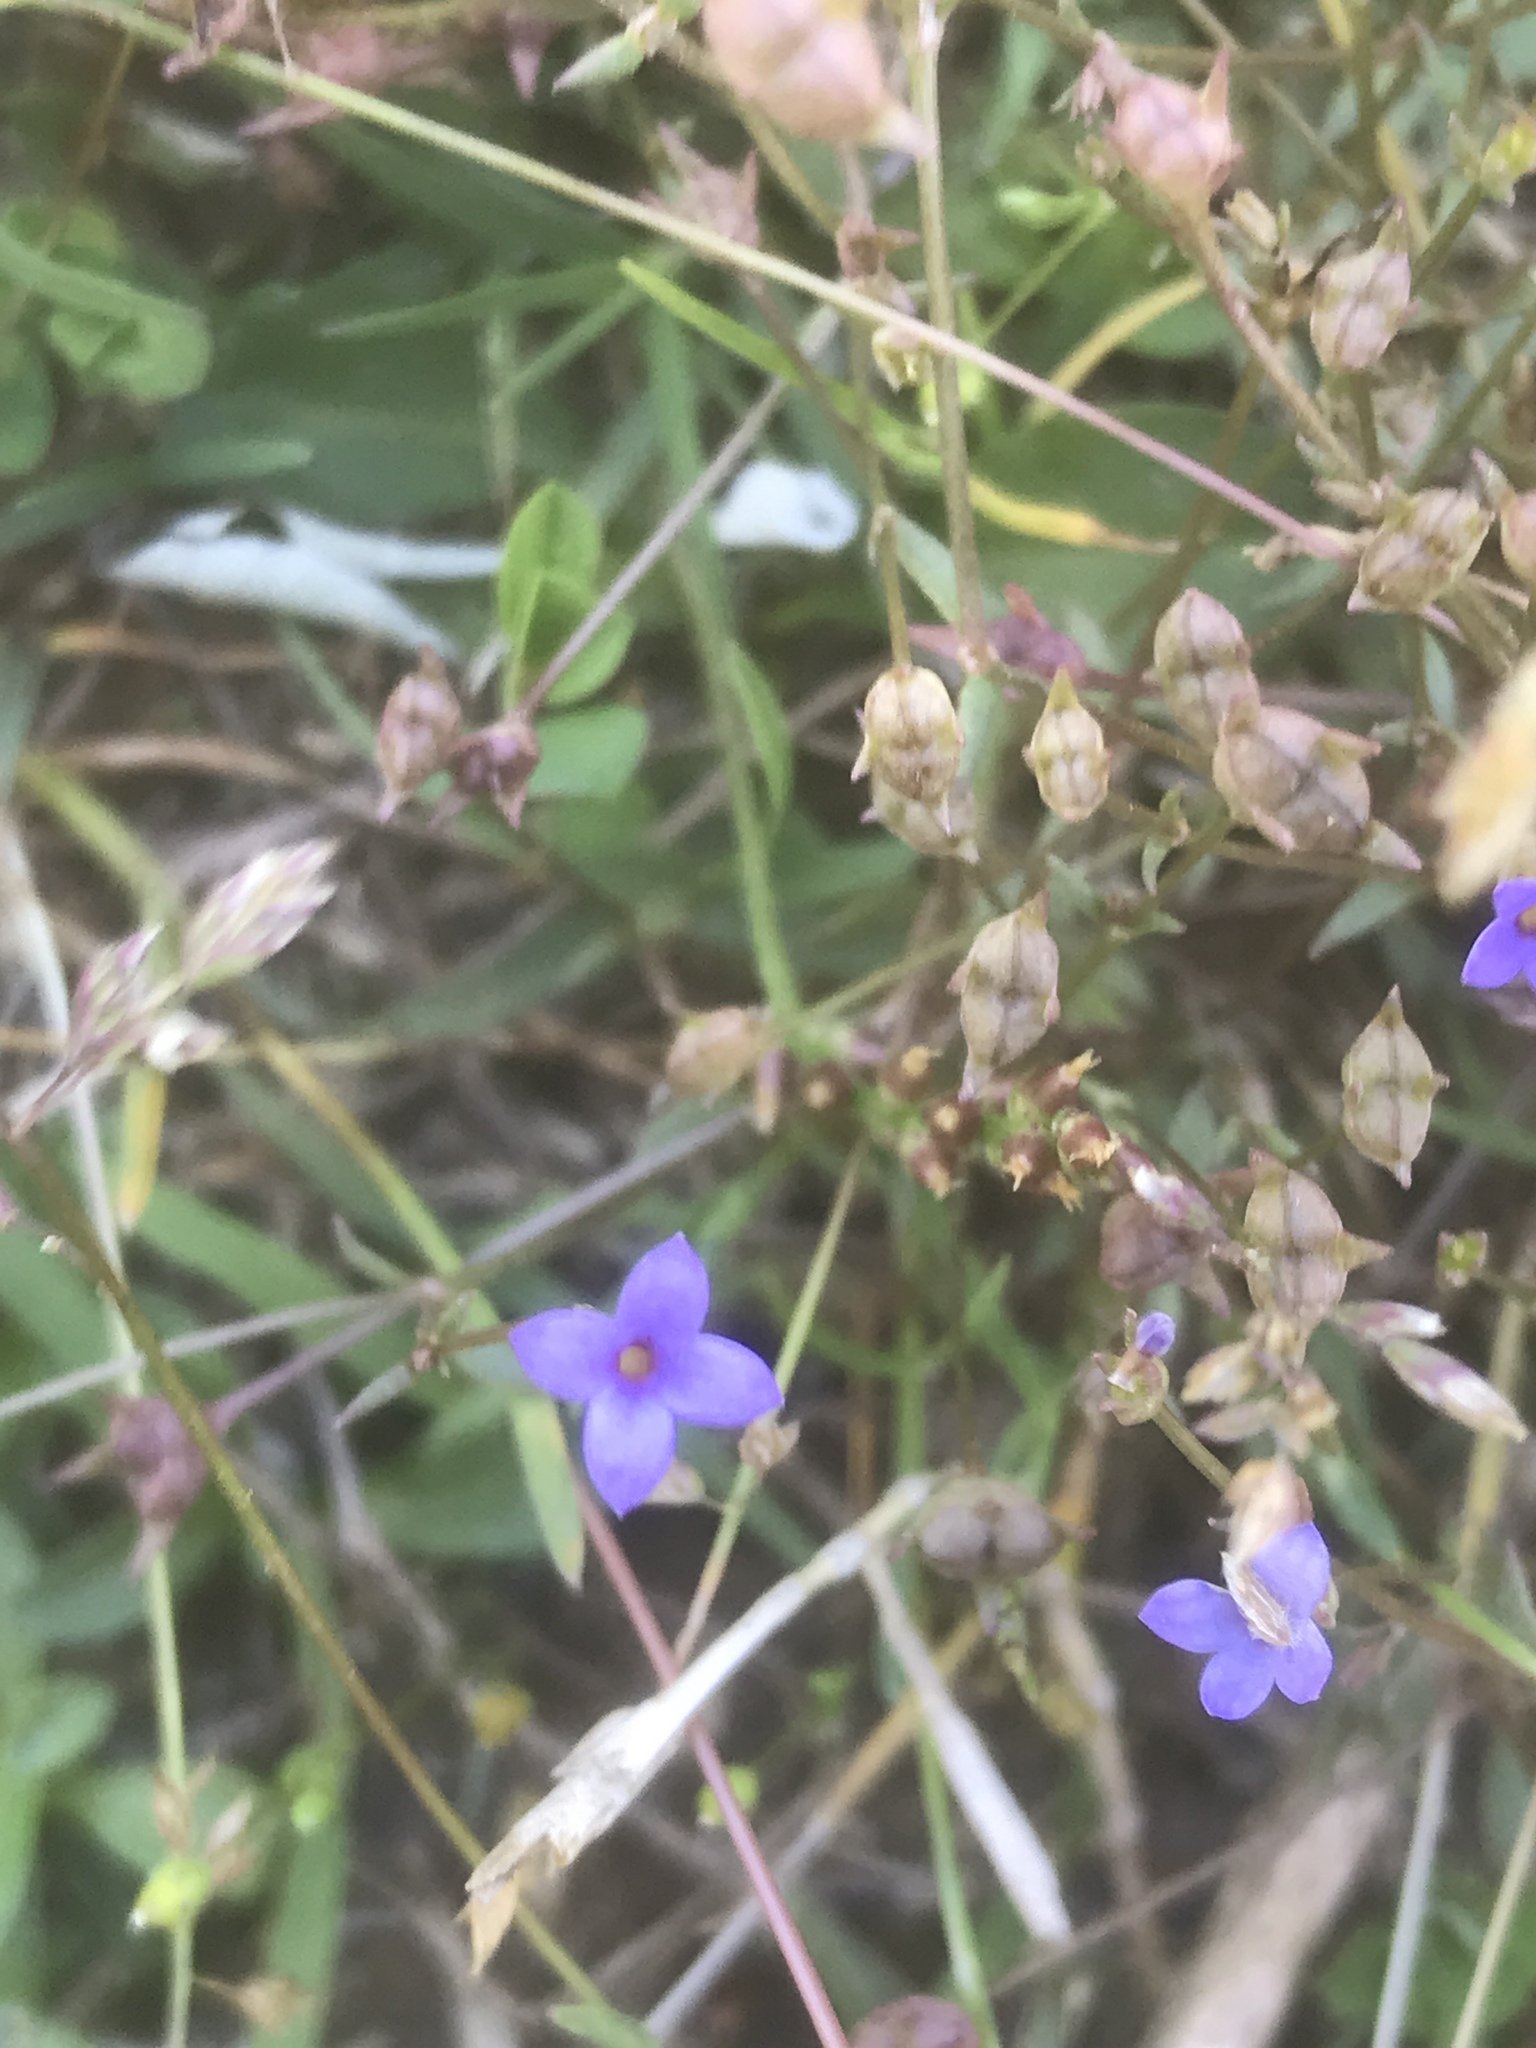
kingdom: Plantae
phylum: Tracheophyta
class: Magnoliopsida
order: Gentianales
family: Rubiaceae
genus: Houstonia
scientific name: Houstonia pusilla
